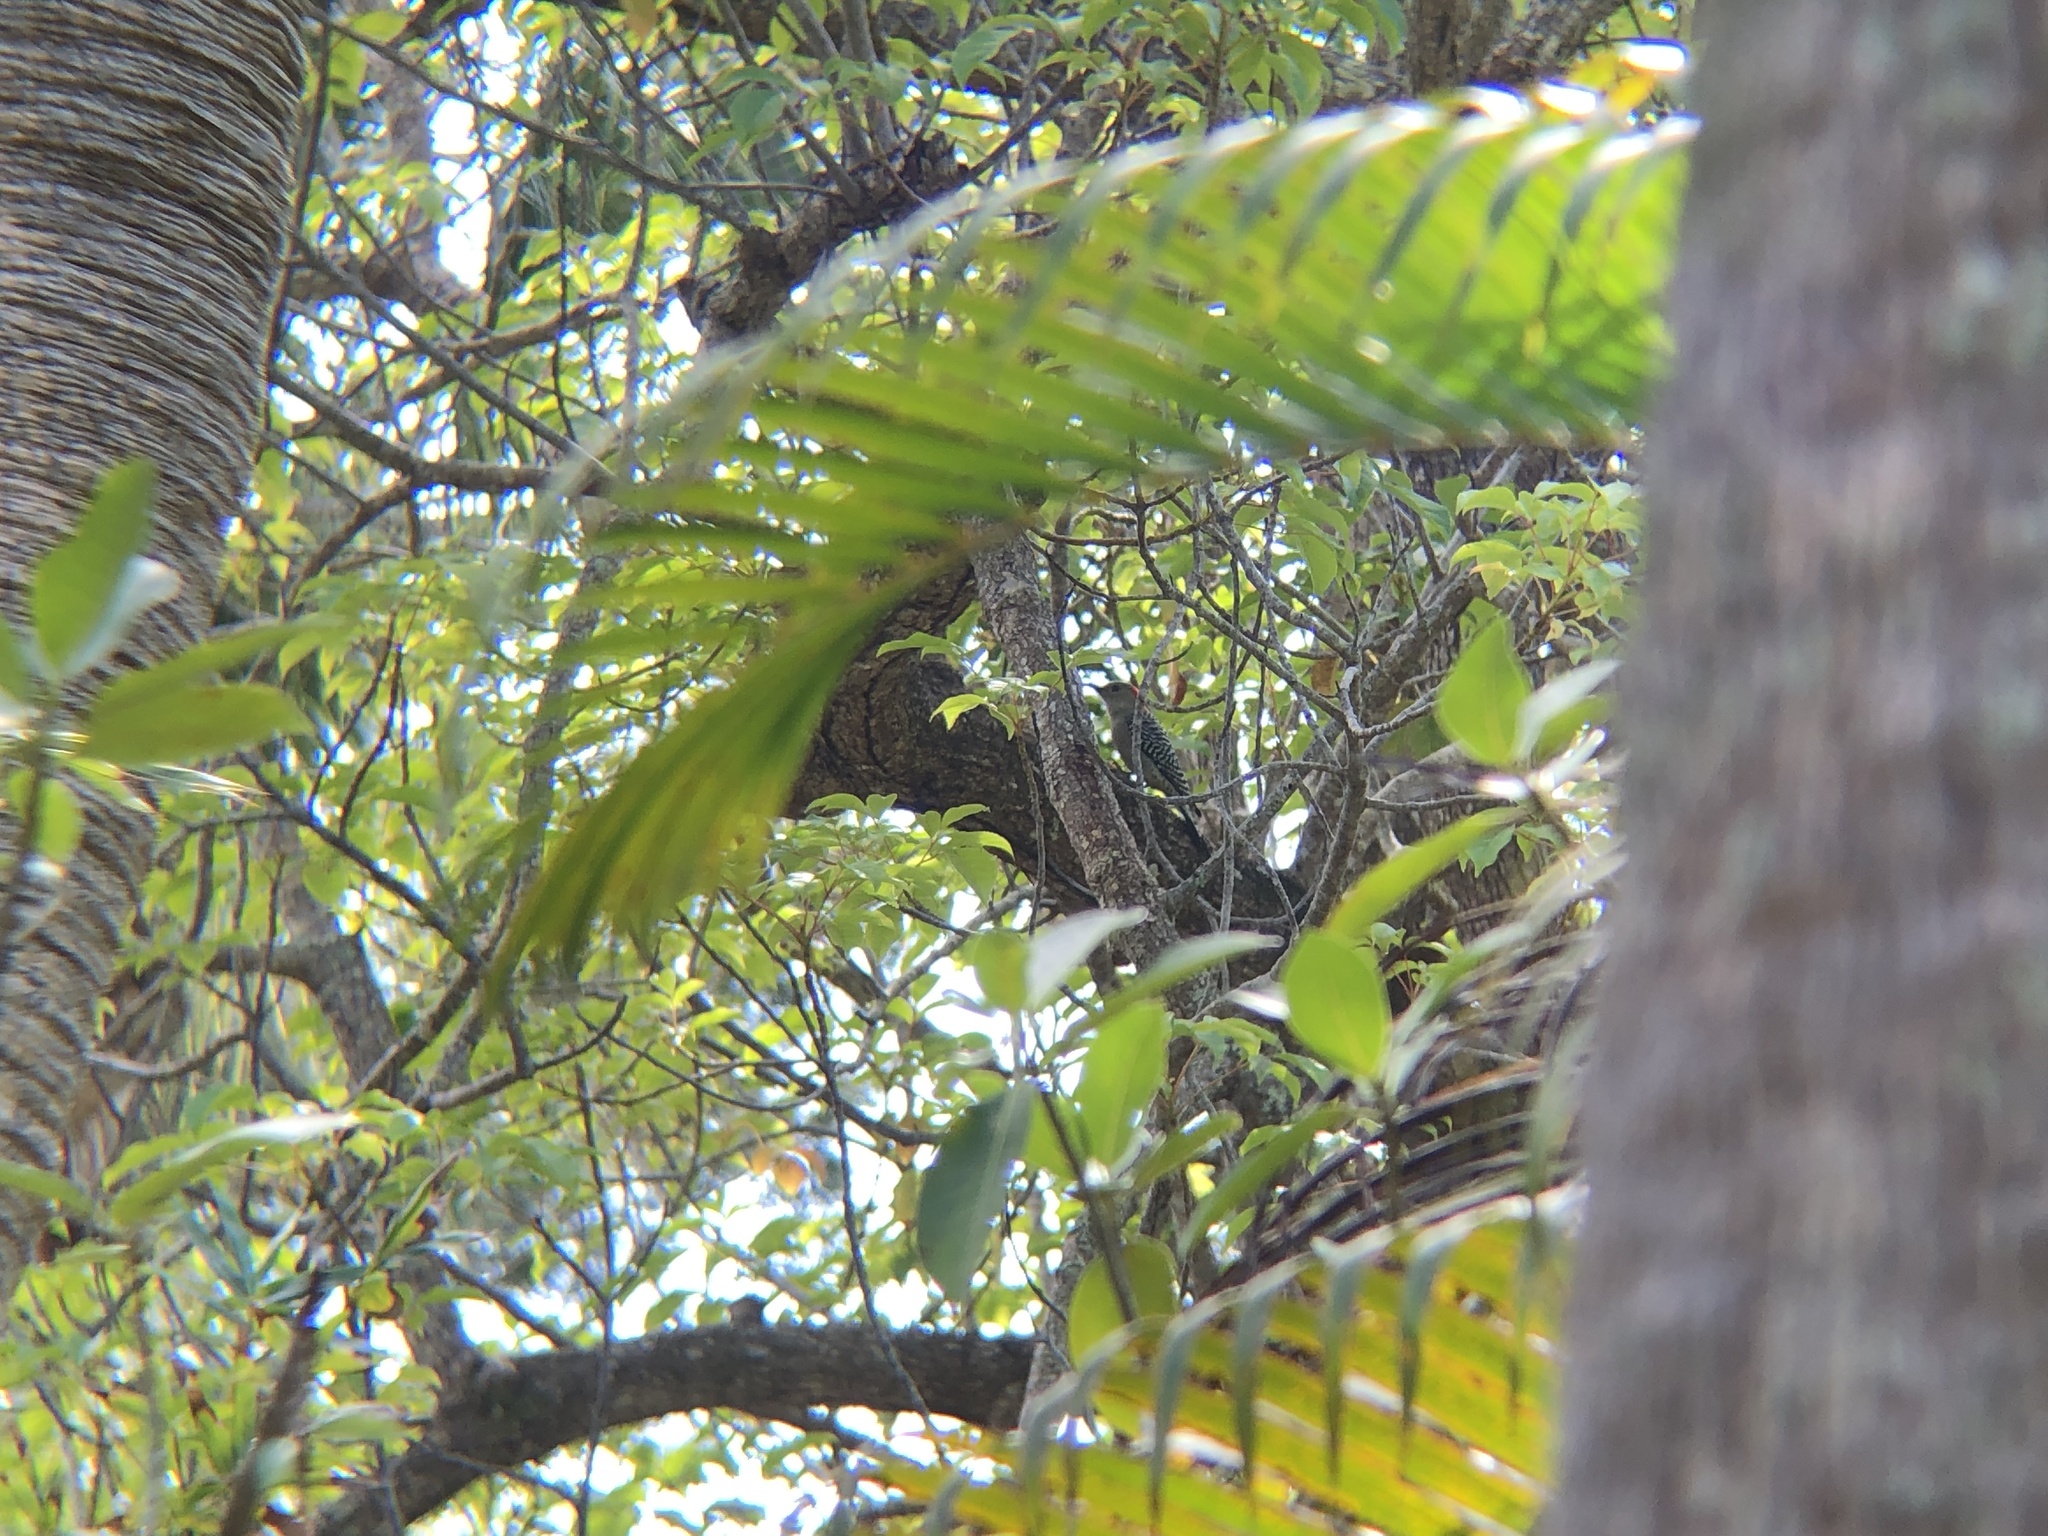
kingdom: Animalia
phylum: Chordata
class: Aves
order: Piciformes
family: Picidae
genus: Melanerpes
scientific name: Melanerpes carolinus
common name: Red-bellied woodpecker
